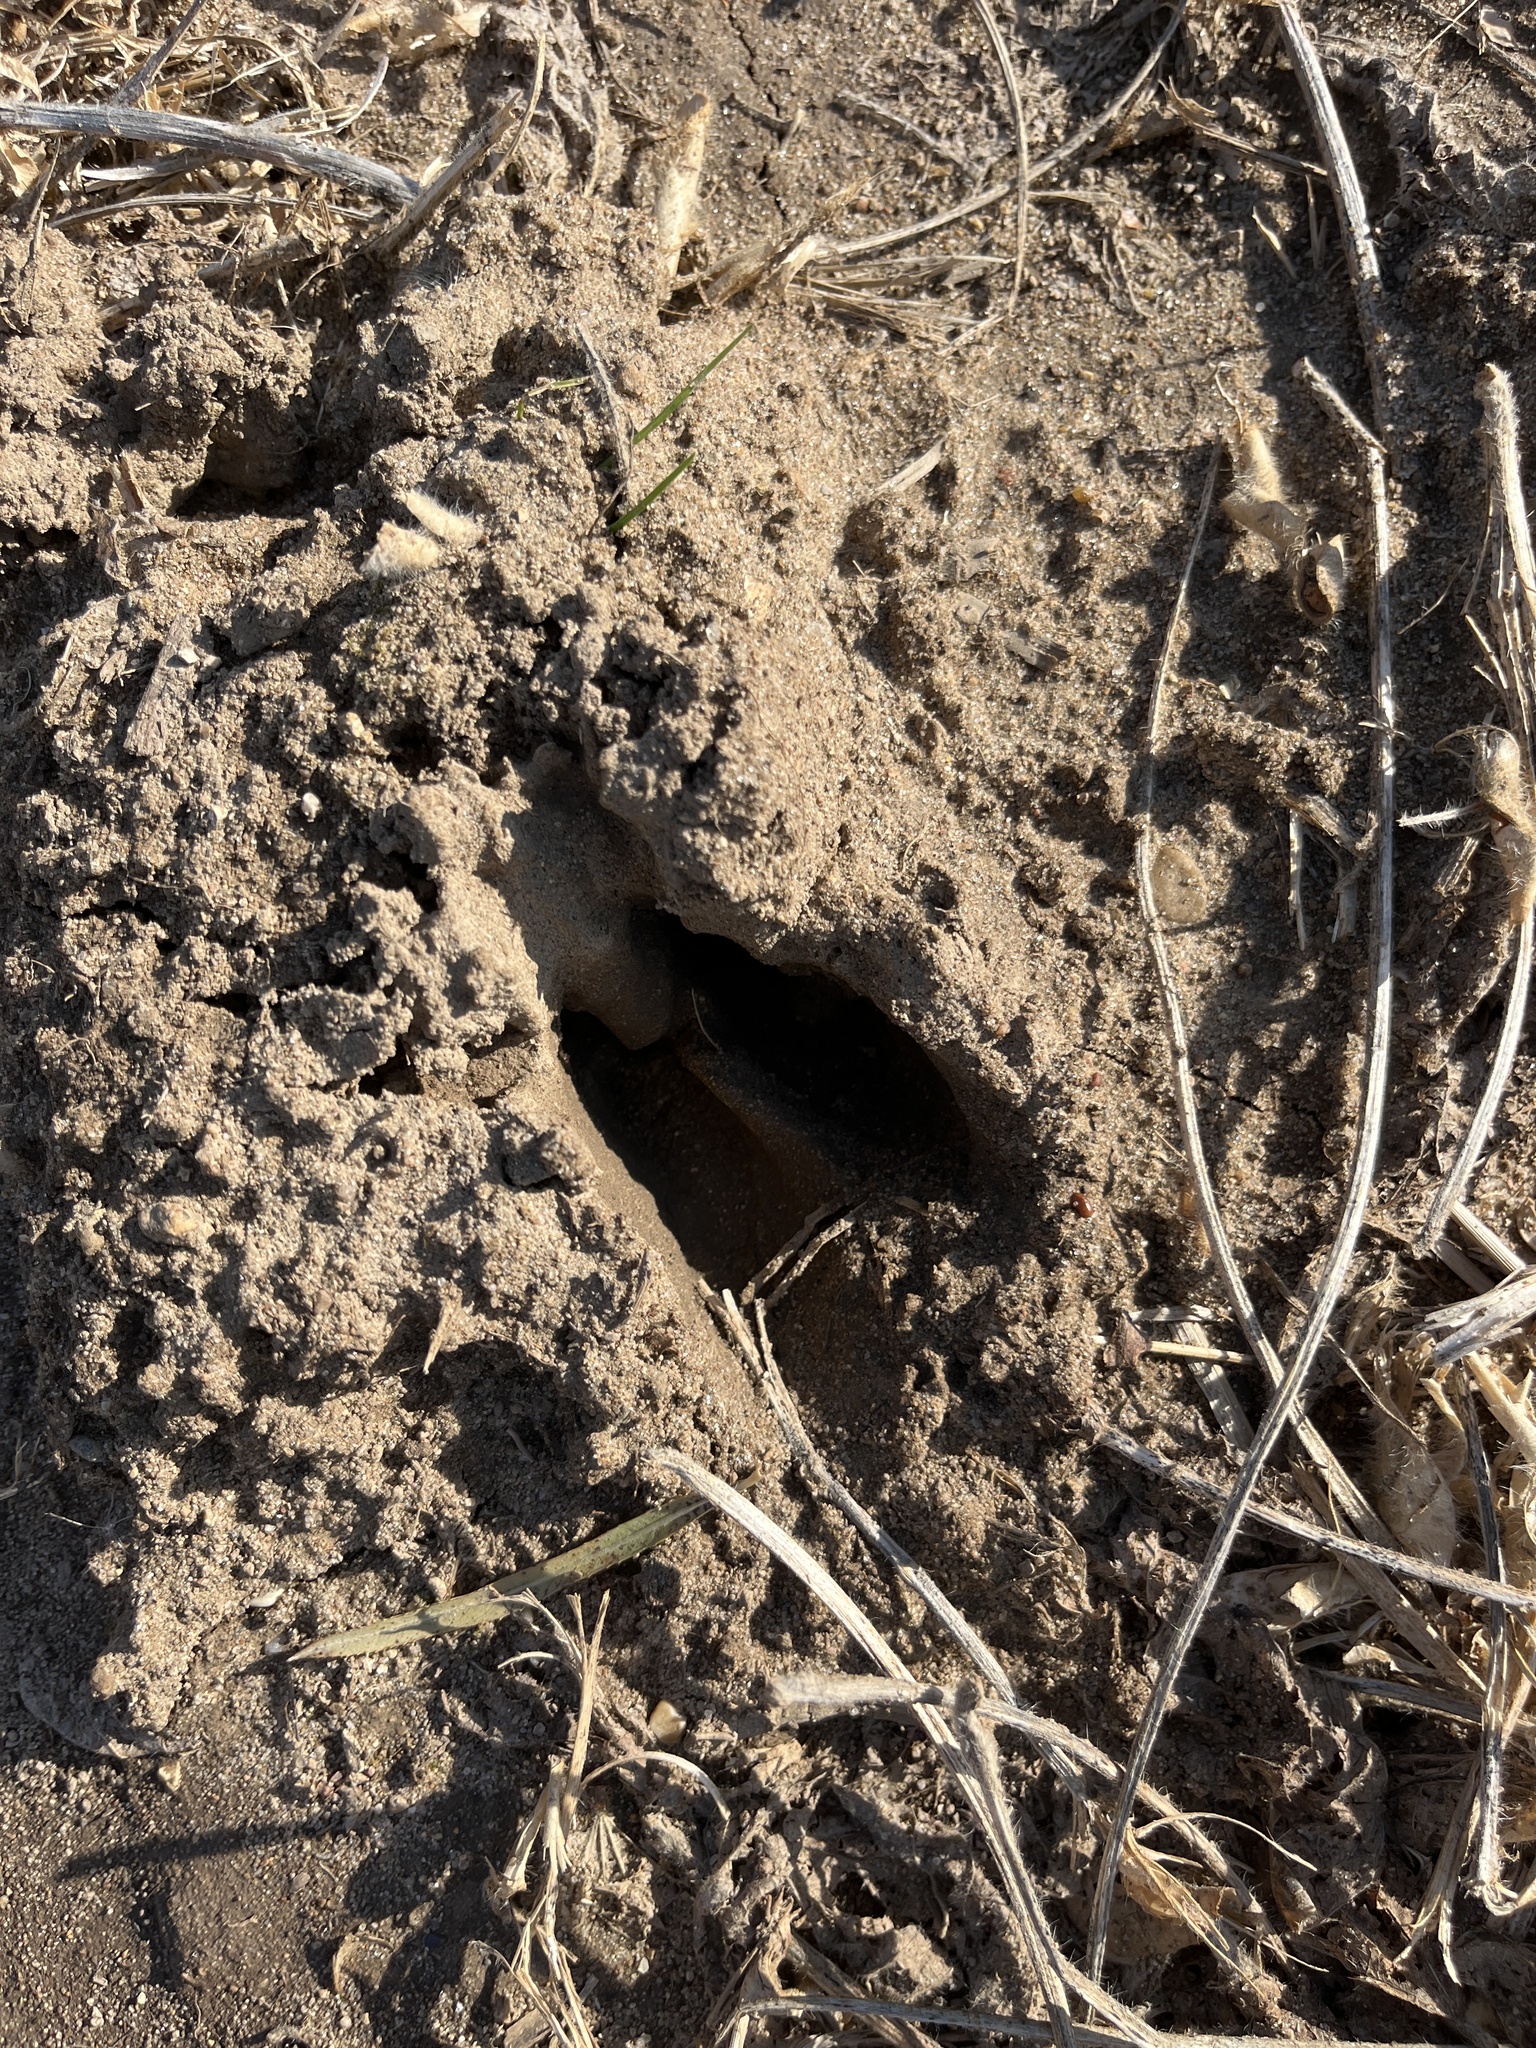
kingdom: Animalia
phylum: Chordata
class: Mammalia
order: Artiodactyla
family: Cervidae
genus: Odocoileus
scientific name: Odocoileus virginianus
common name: White-tailed deer
